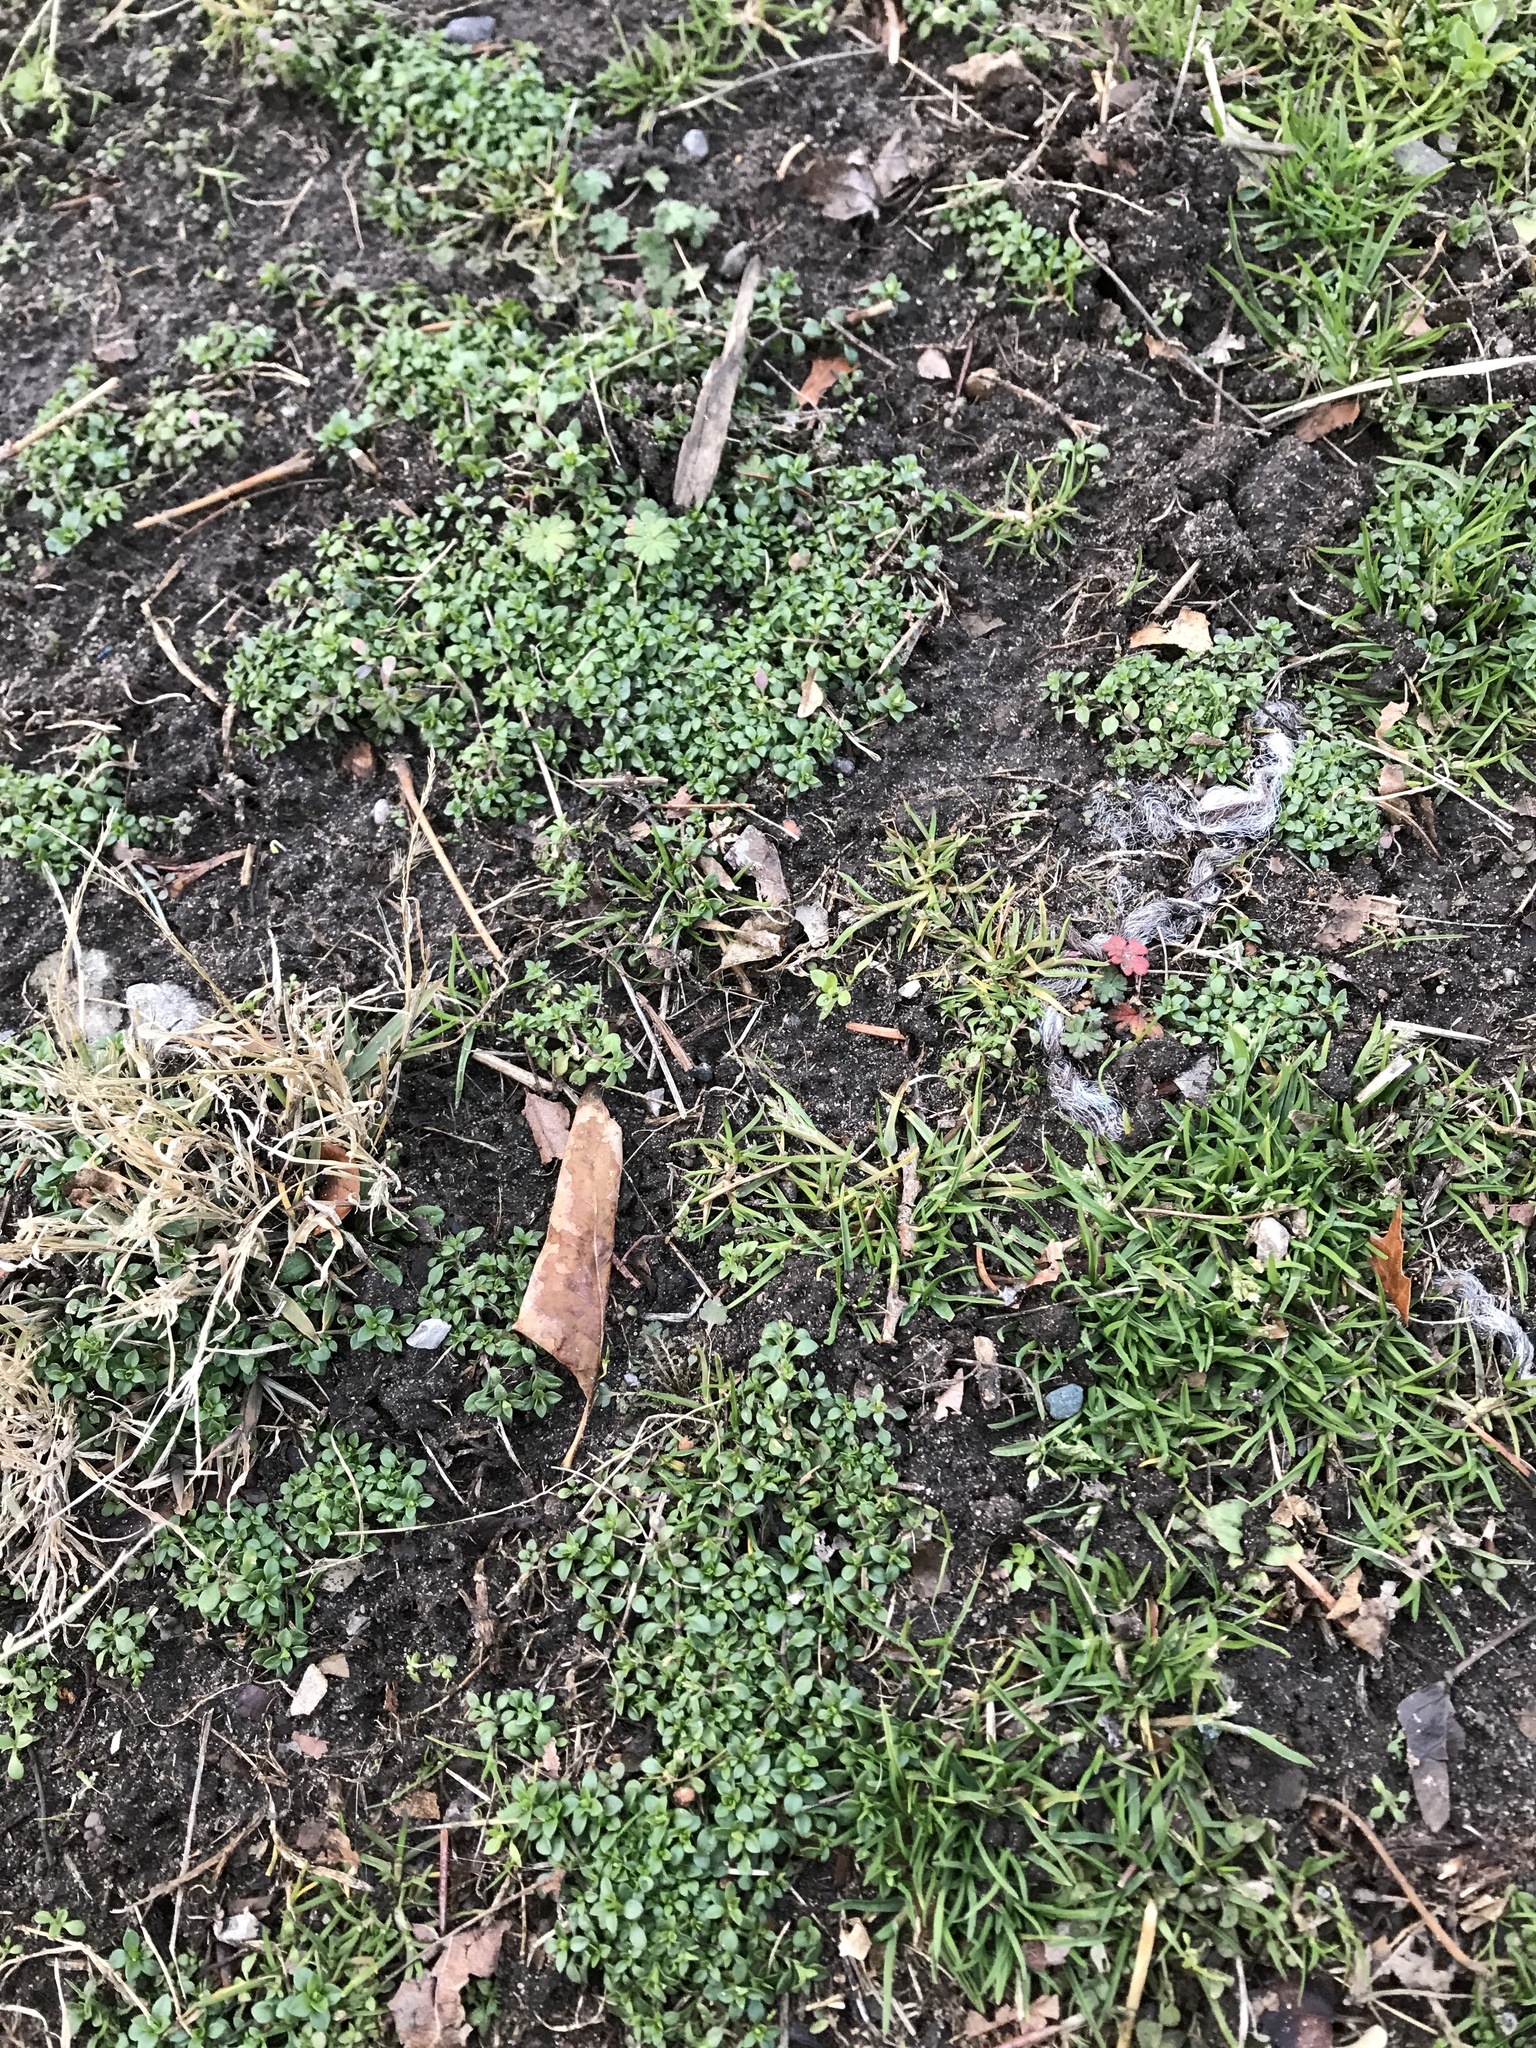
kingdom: Plantae
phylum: Tracheophyta
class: Magnoliopsida
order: Caryophyllales
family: Caryophyllaceae
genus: Stellaria
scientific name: Stellaria media
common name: Common chickweed
